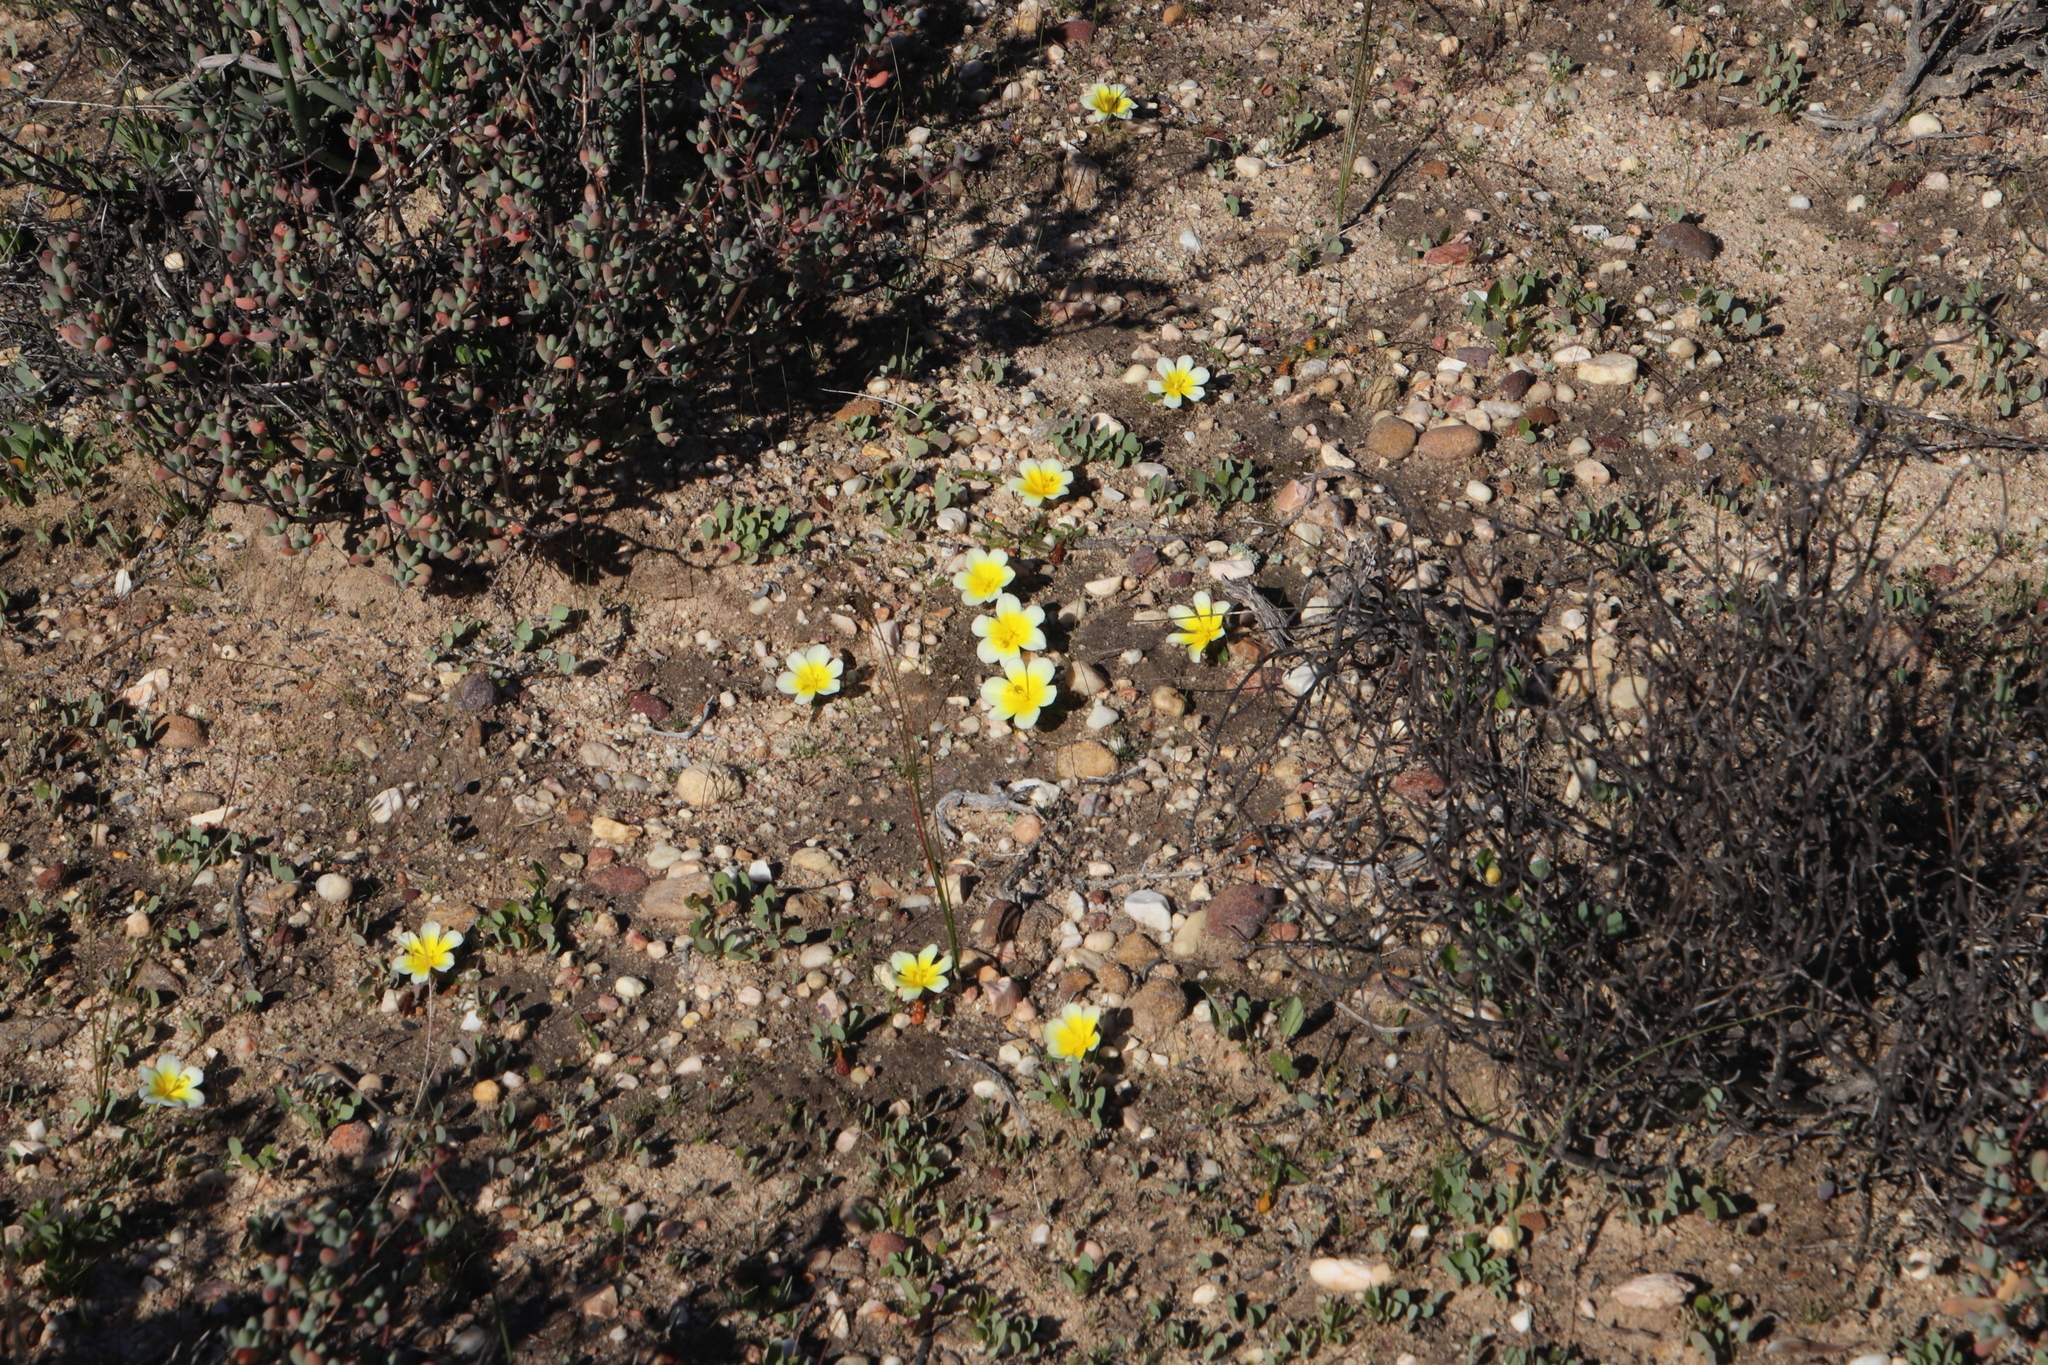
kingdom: Plantae
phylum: Tracheophyta
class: Liliopsida
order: Asparagales
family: Iridaceae
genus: Moraea
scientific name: Moraea luteoalba
